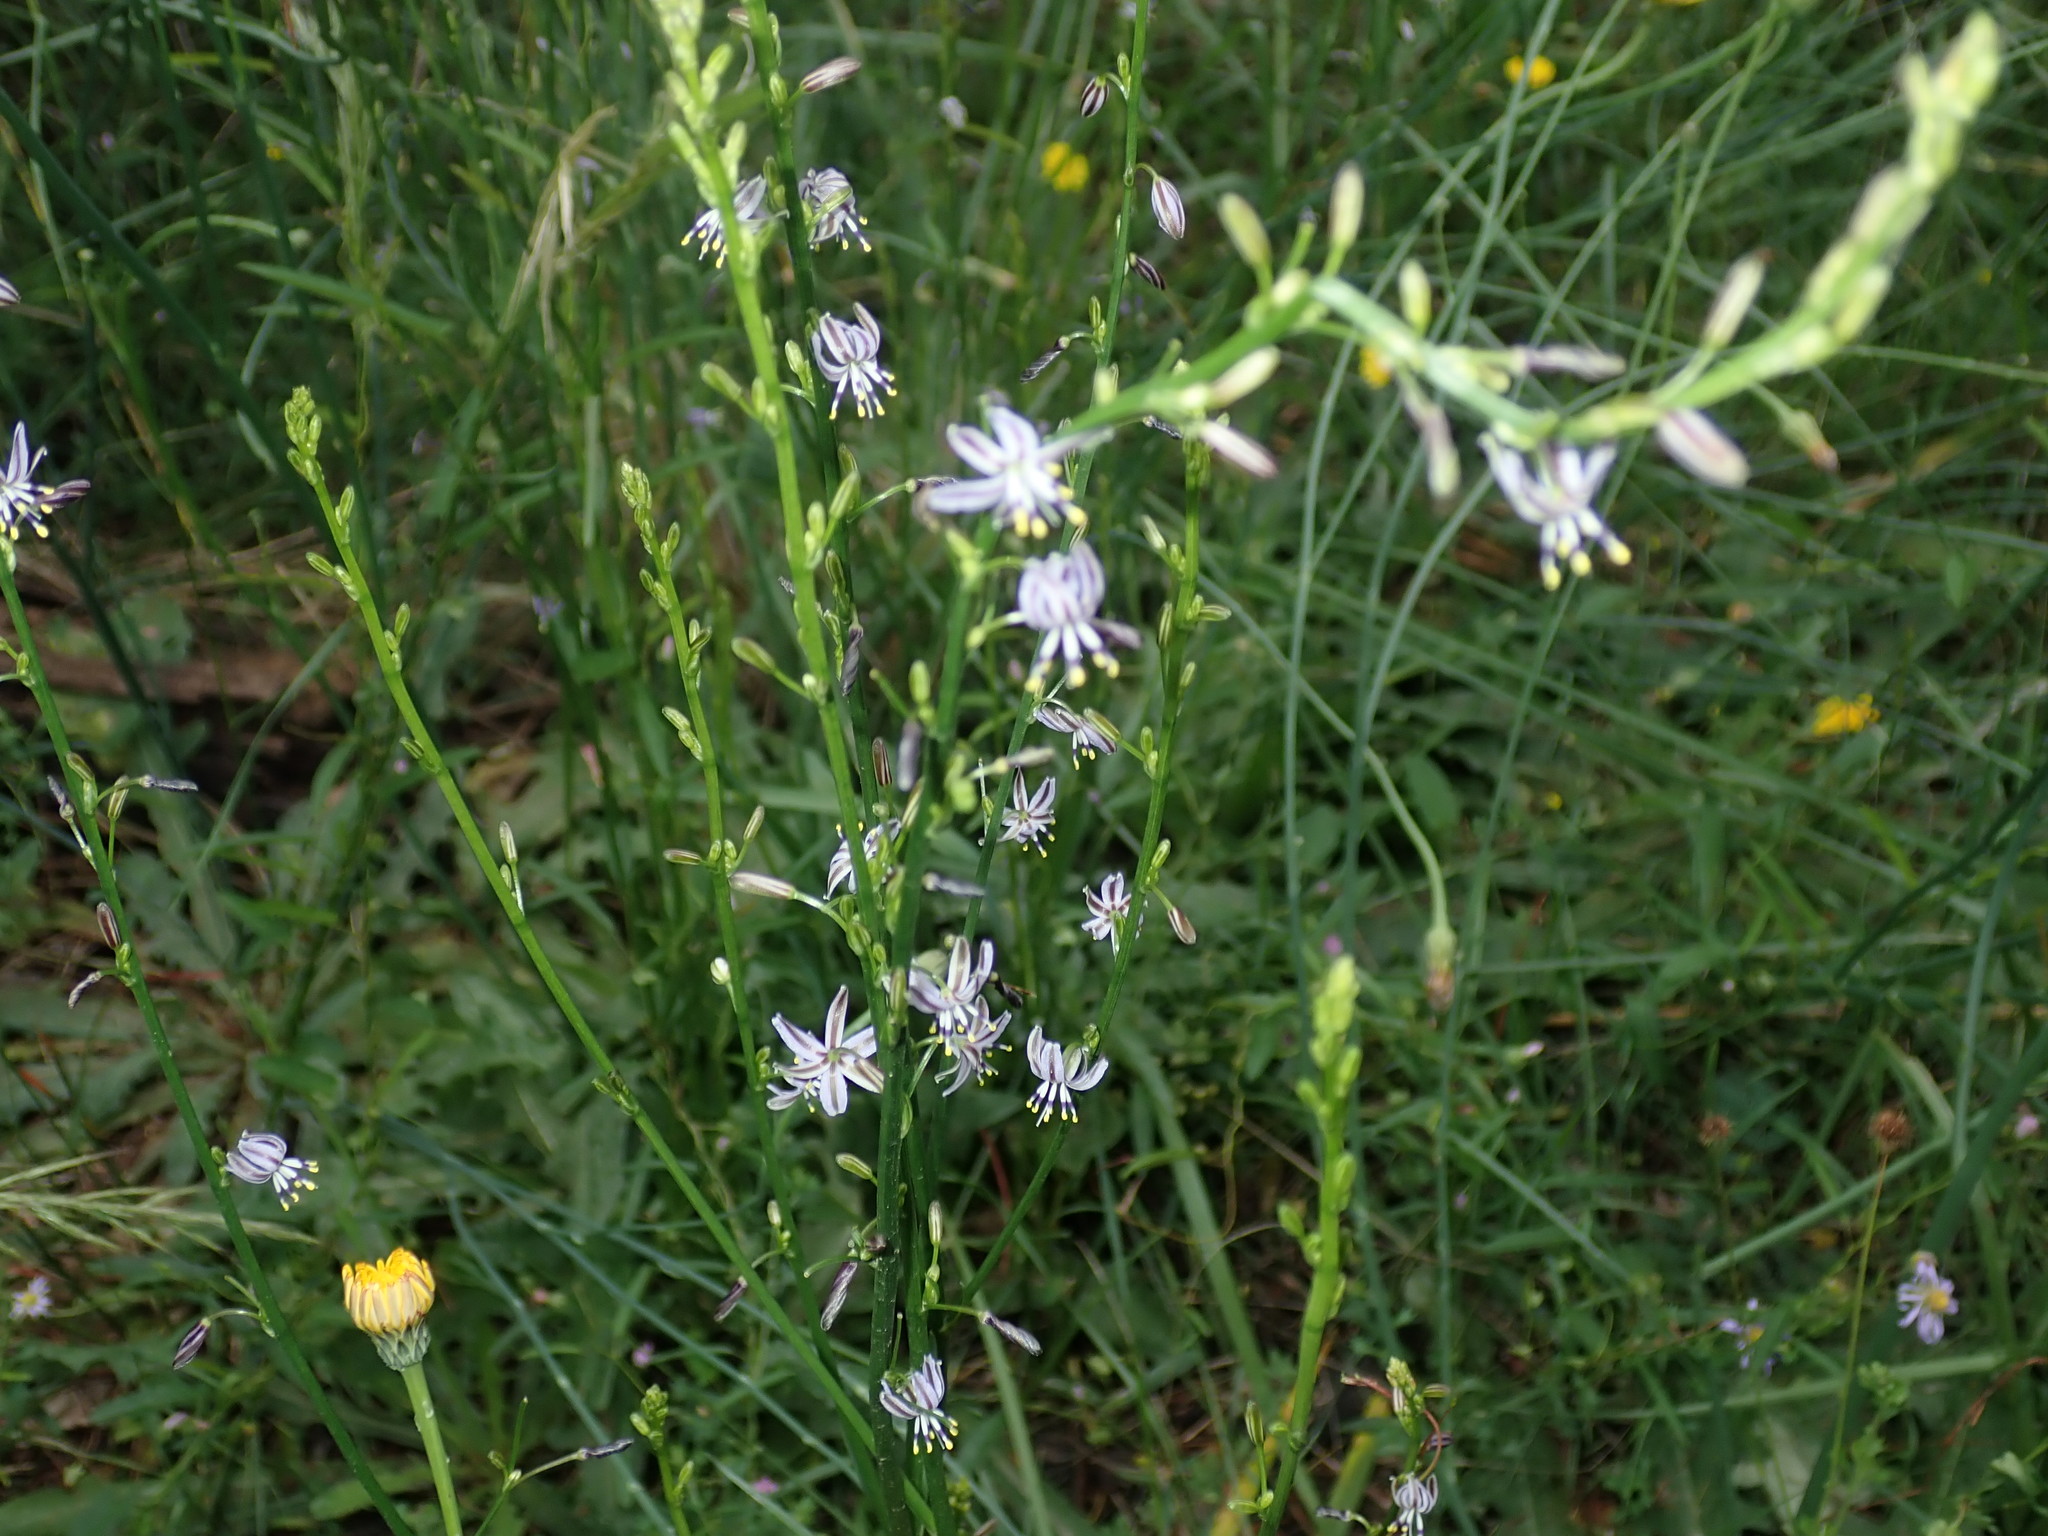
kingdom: Plantae
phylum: Tracheophyta
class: Liliopsida
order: Asparagales
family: Asphodelaceae
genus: Caesia
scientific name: Caesia parviflora
